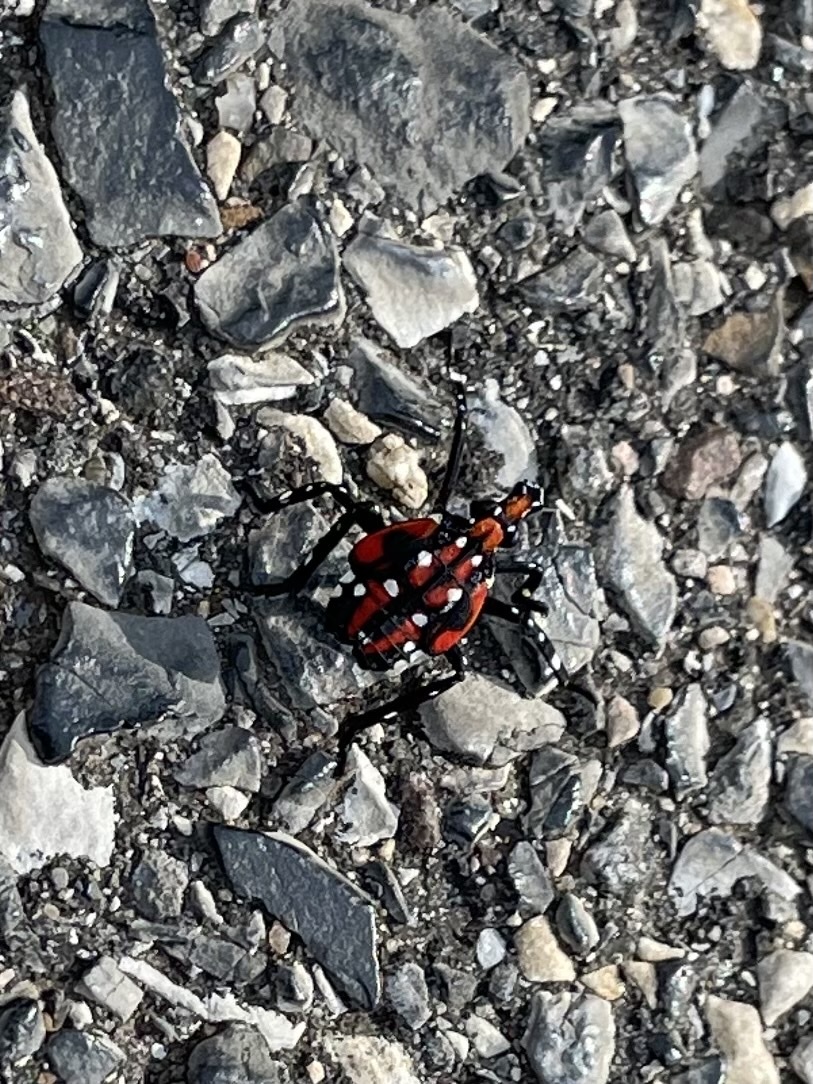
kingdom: Animalia
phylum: Arthropoda
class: Insecta
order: Hemiptera
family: Fulgoridae
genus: Lycorma
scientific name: Lycorma delicatula
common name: Spotted lanternfly
